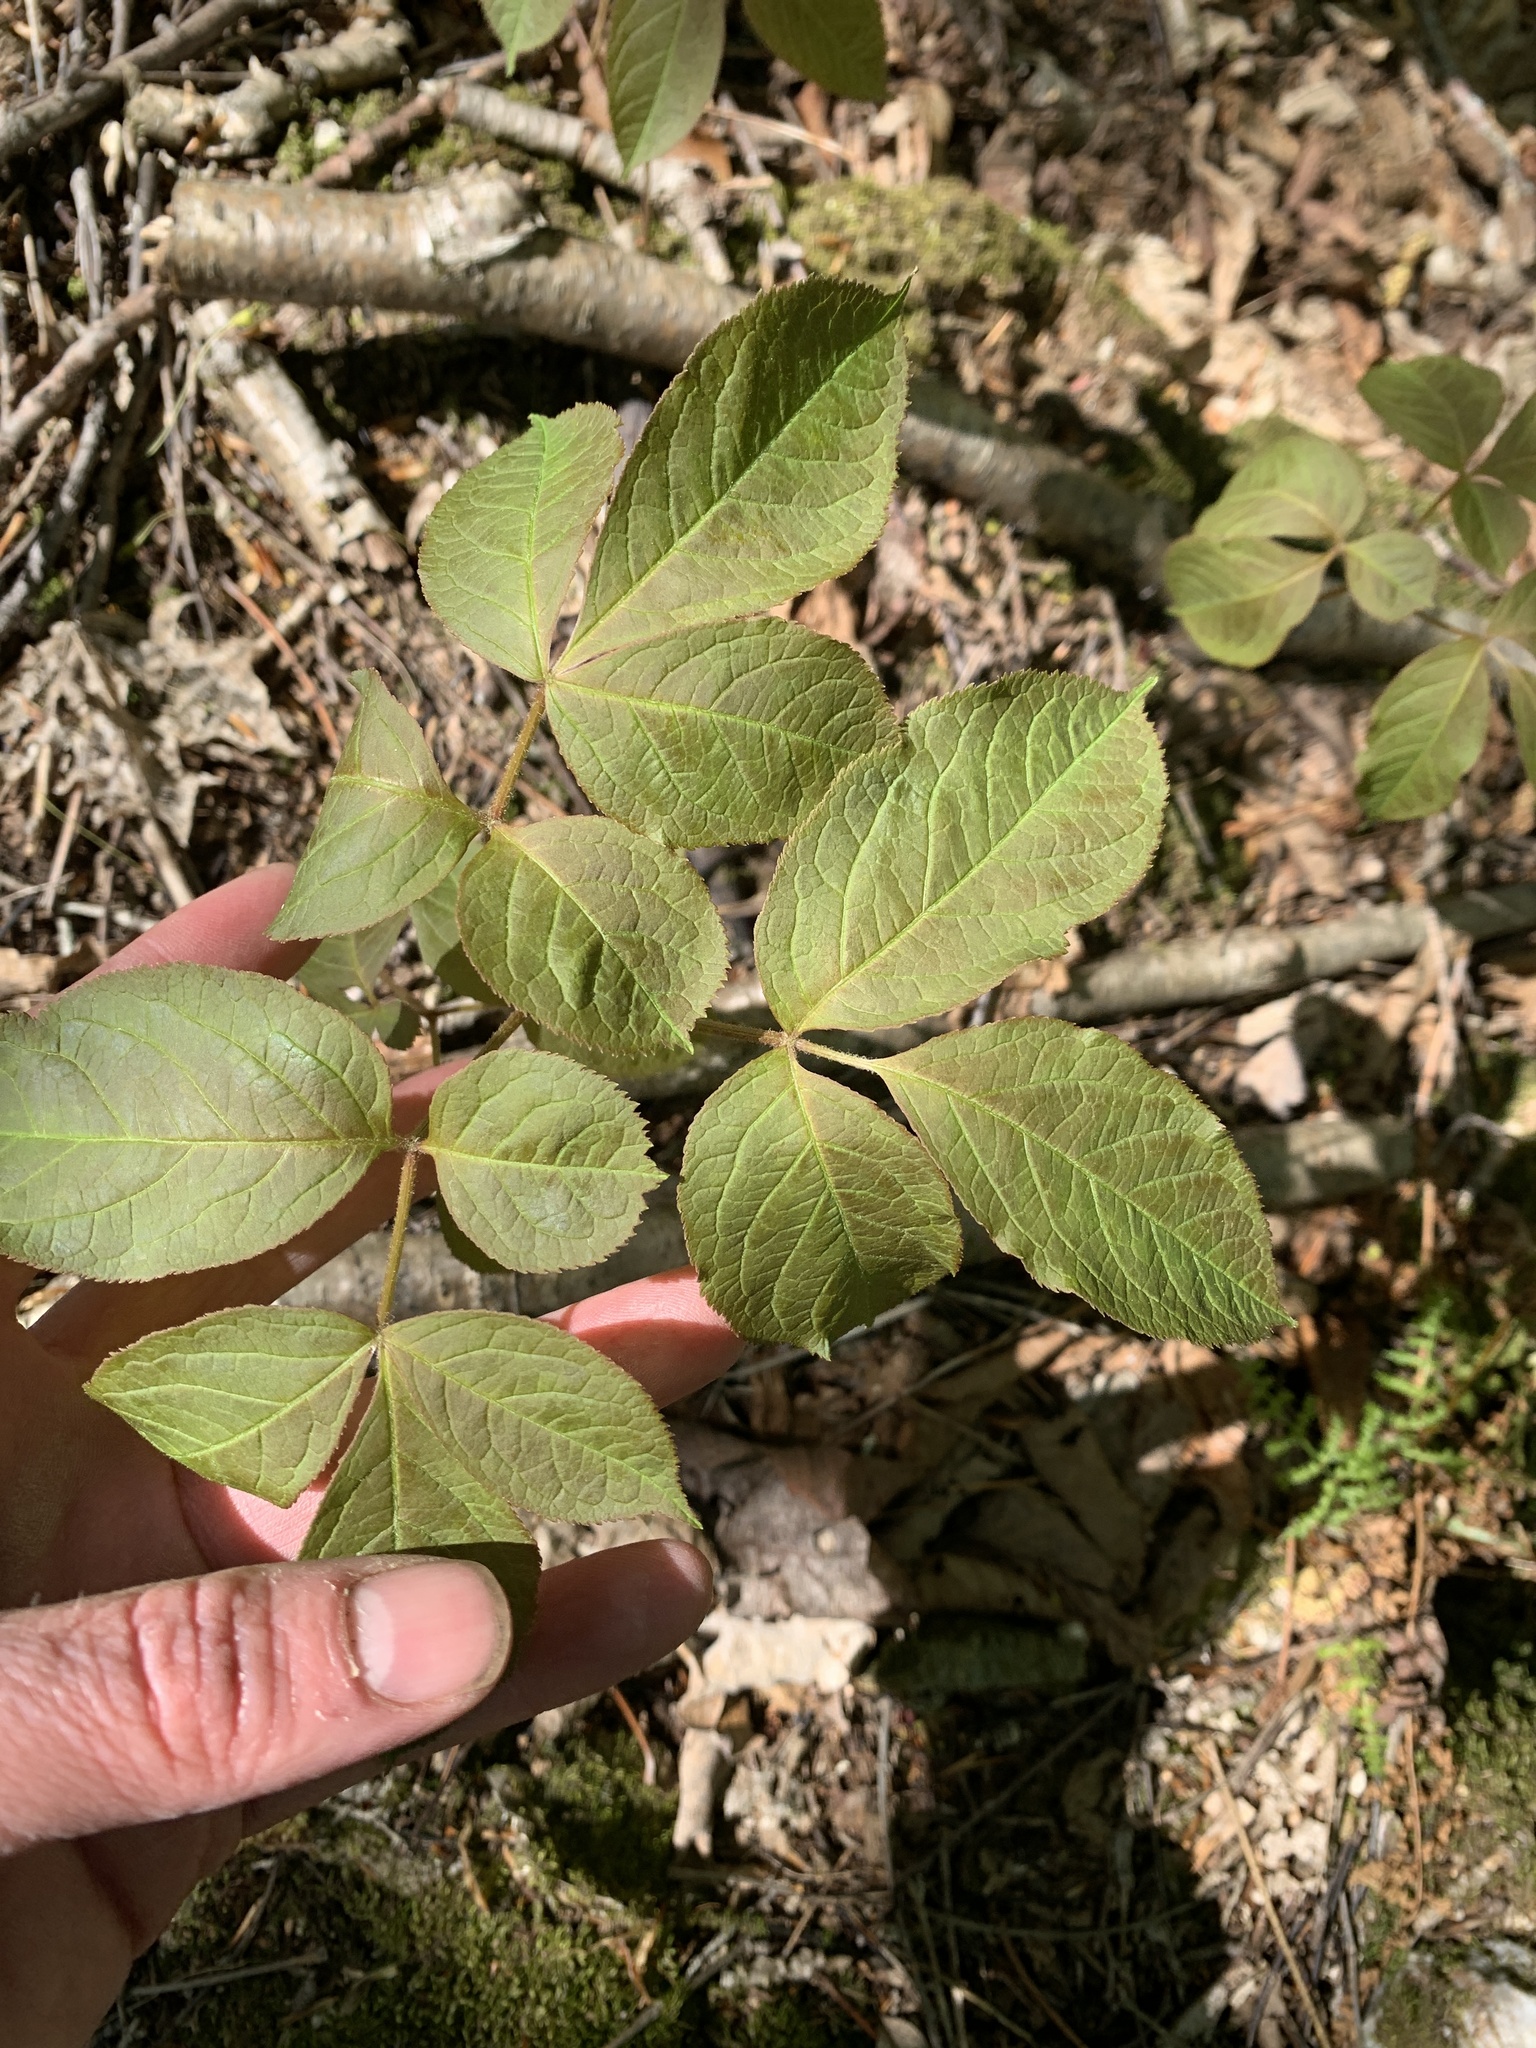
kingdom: Plantae
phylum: Tracheophyta
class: Magnoliopsida
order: Apiales
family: Araliaceae
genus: Aralia
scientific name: Aralia nudicaulis
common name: Wild sarsaparilla
